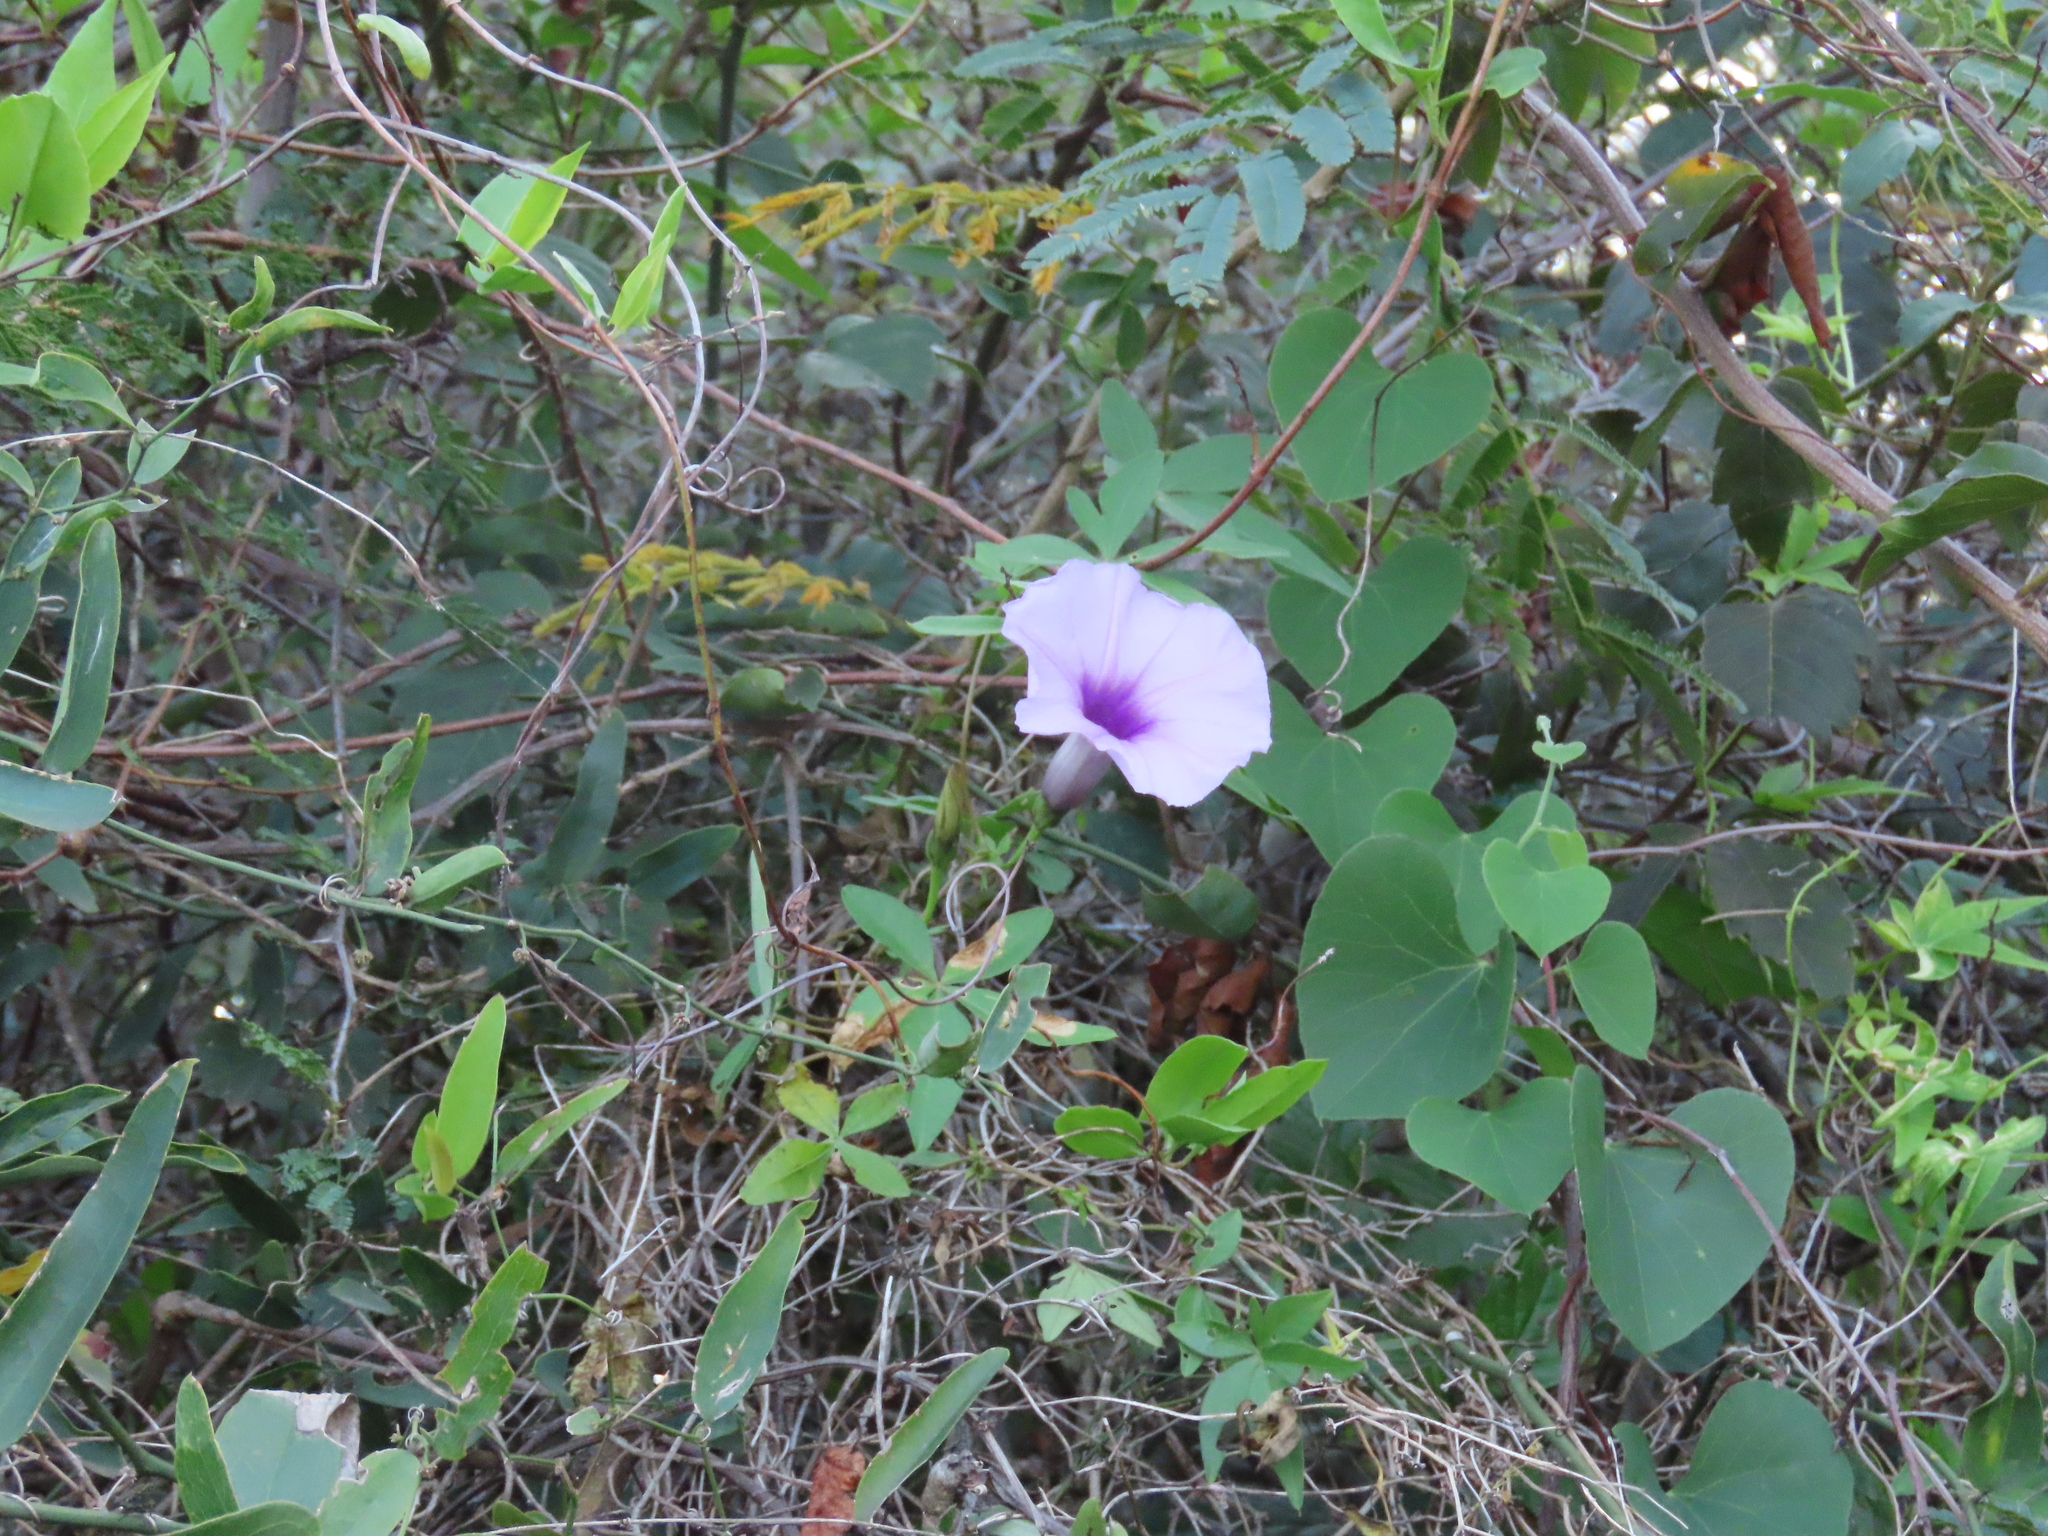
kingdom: Plantae
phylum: Tracheophyta
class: Magnoliopsida
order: Solanales
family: Convolvulaceae
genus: Ipomoea
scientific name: Ipomoea cairica
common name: Mile a minute vine
